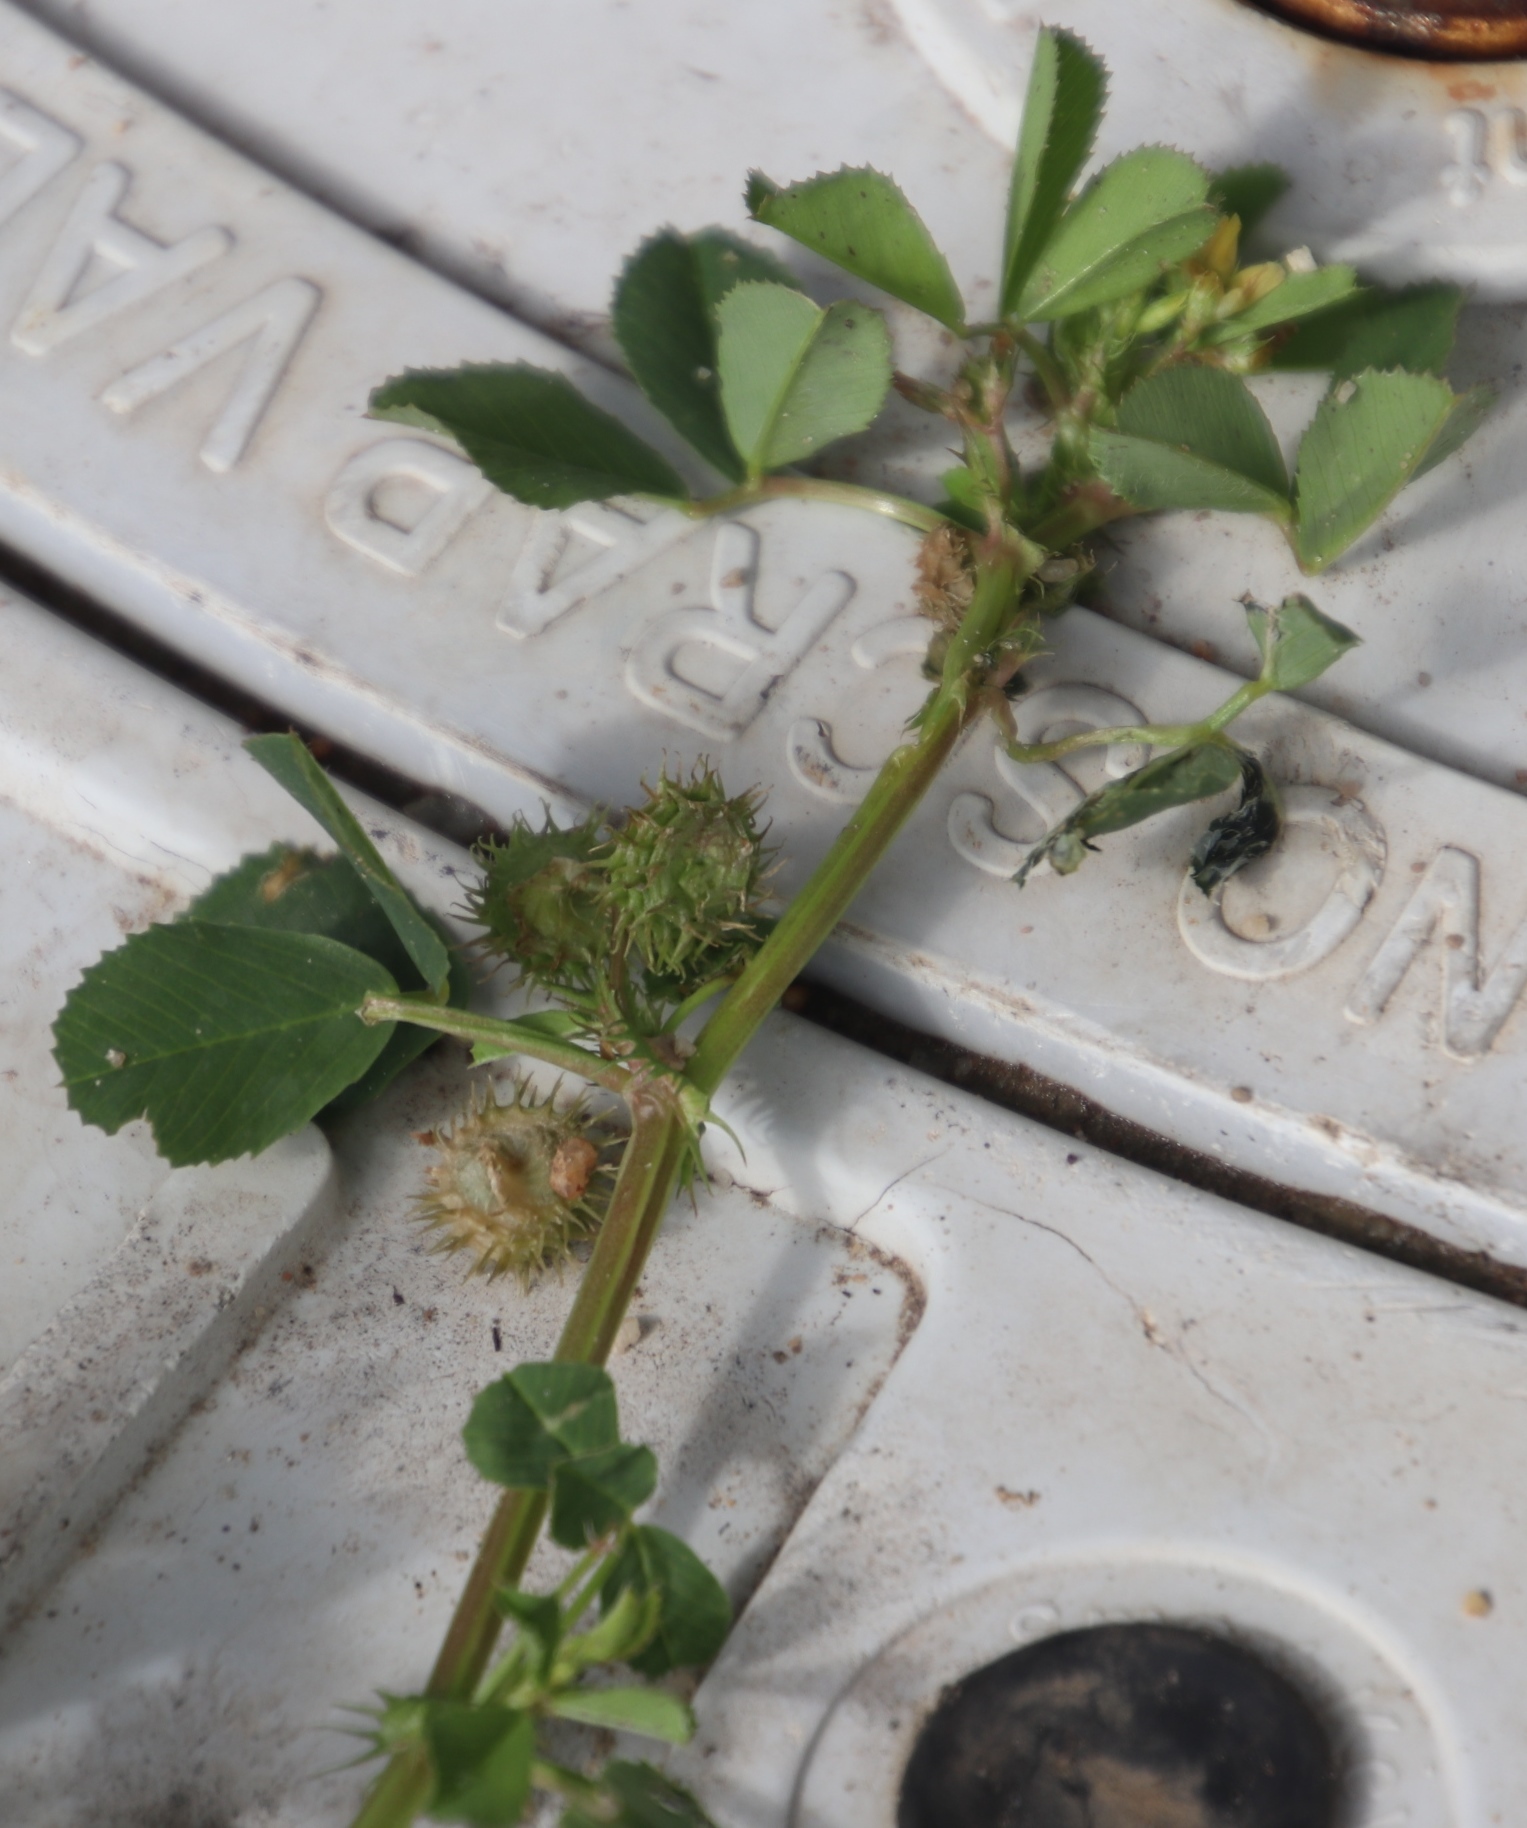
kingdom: Plantae
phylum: Tracheophyta
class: Magnoliopsida
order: Fabales
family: Fabaceae
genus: Medicago
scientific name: Medicago polymorpha
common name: Burclover
